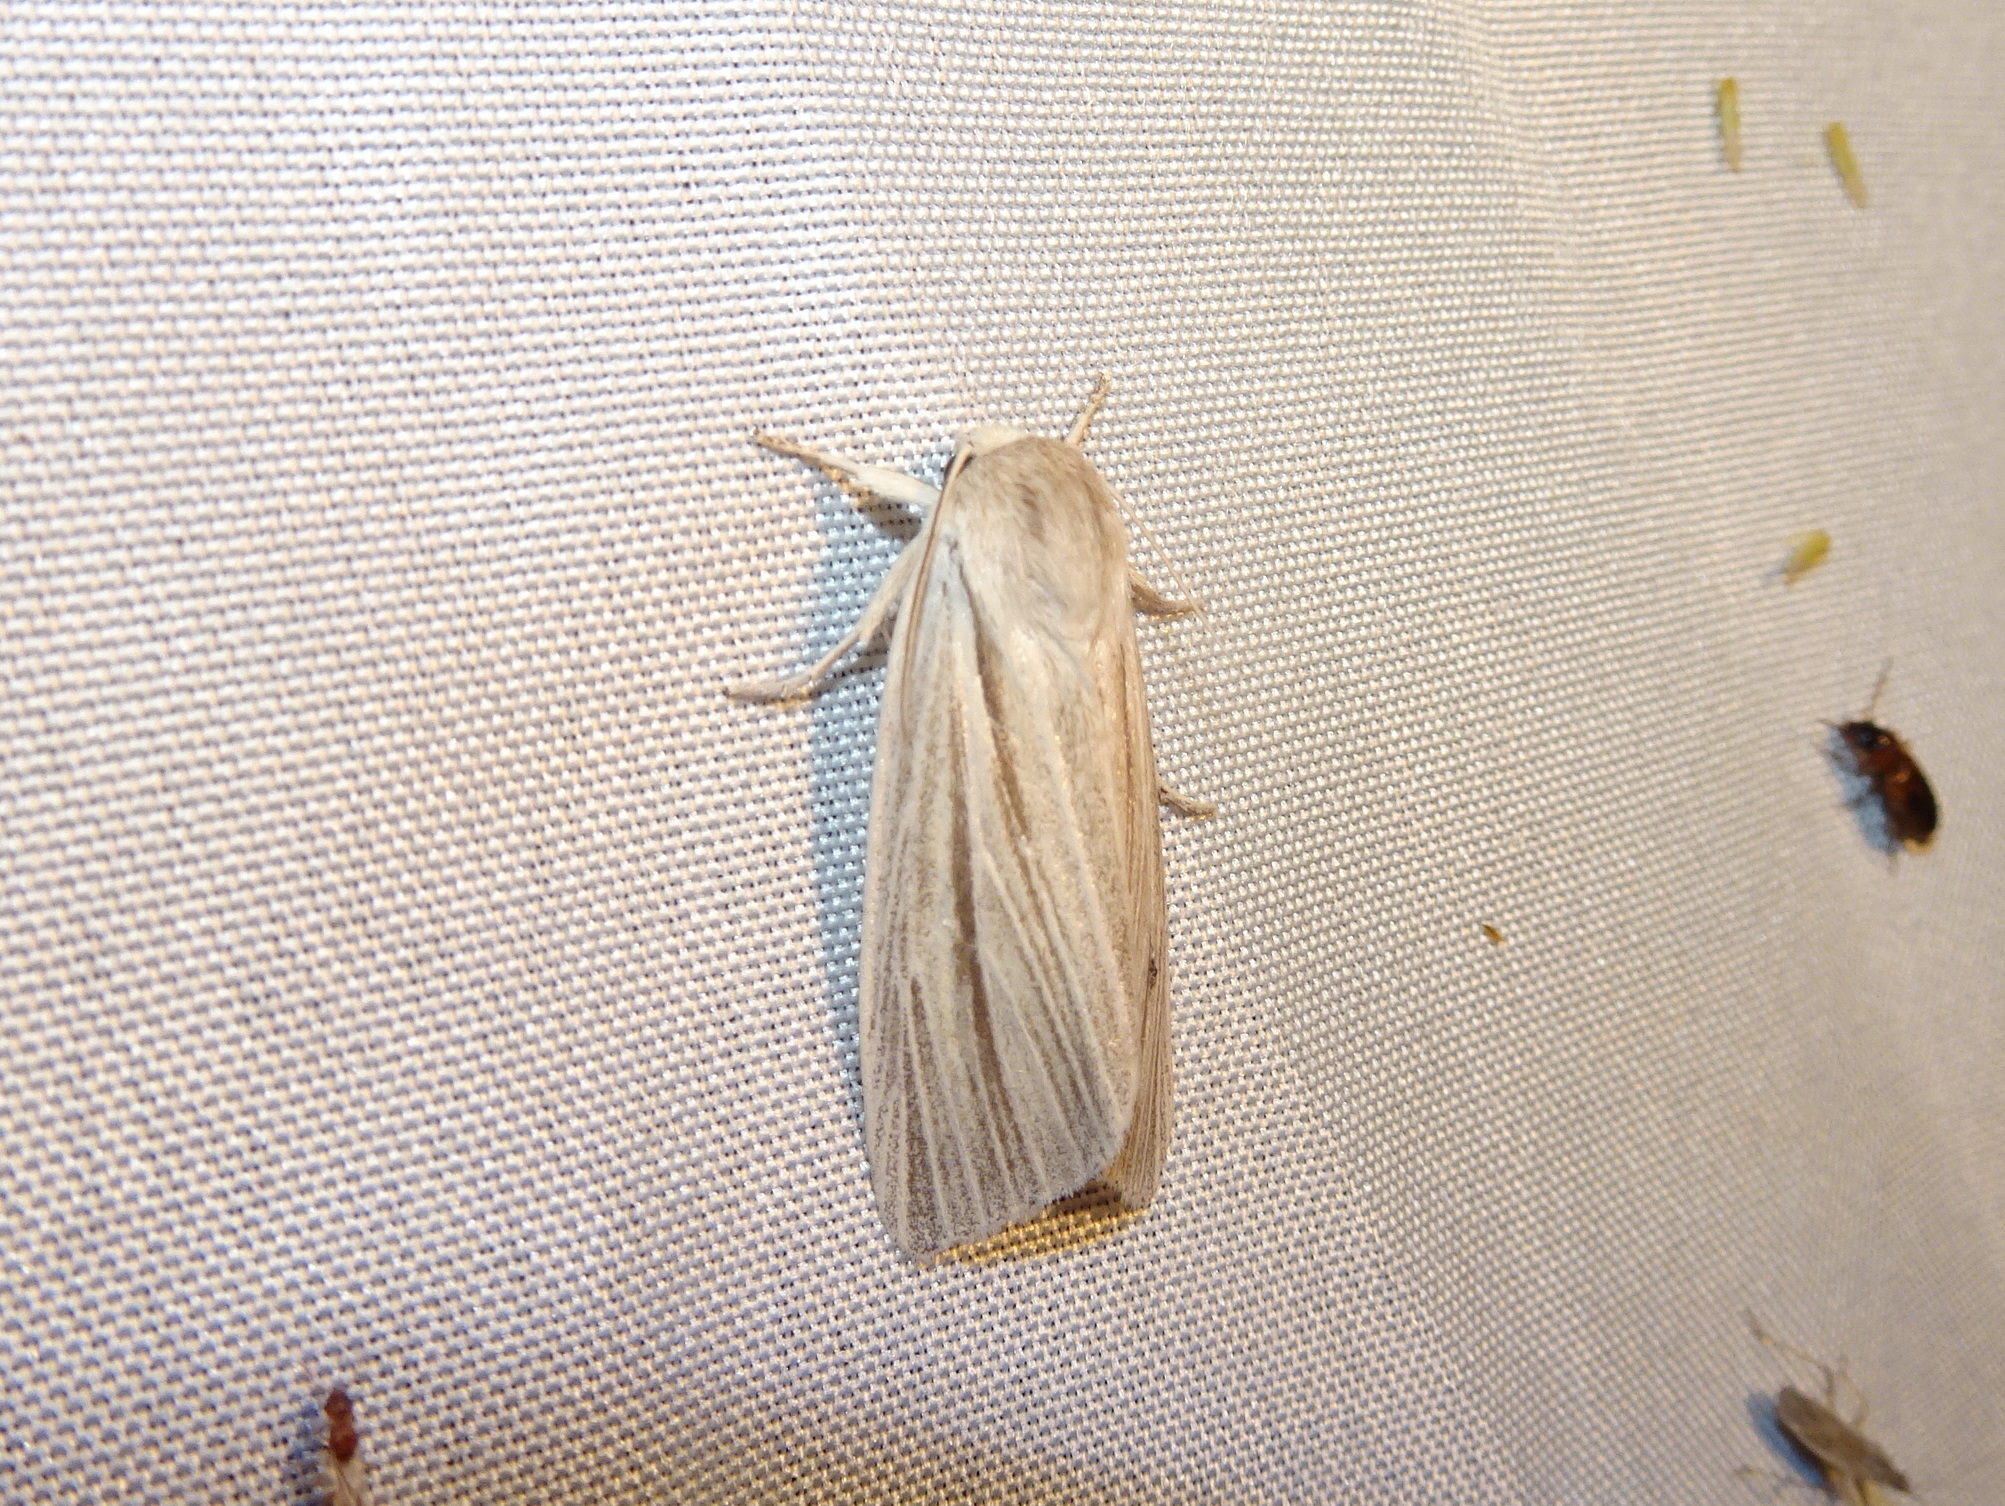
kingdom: Animalia
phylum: Arthropoda
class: Insecta
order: Lepidoptera
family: Noctuidae
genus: Acronicta
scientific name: Acronicta insularis
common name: Henry's marsh moth
